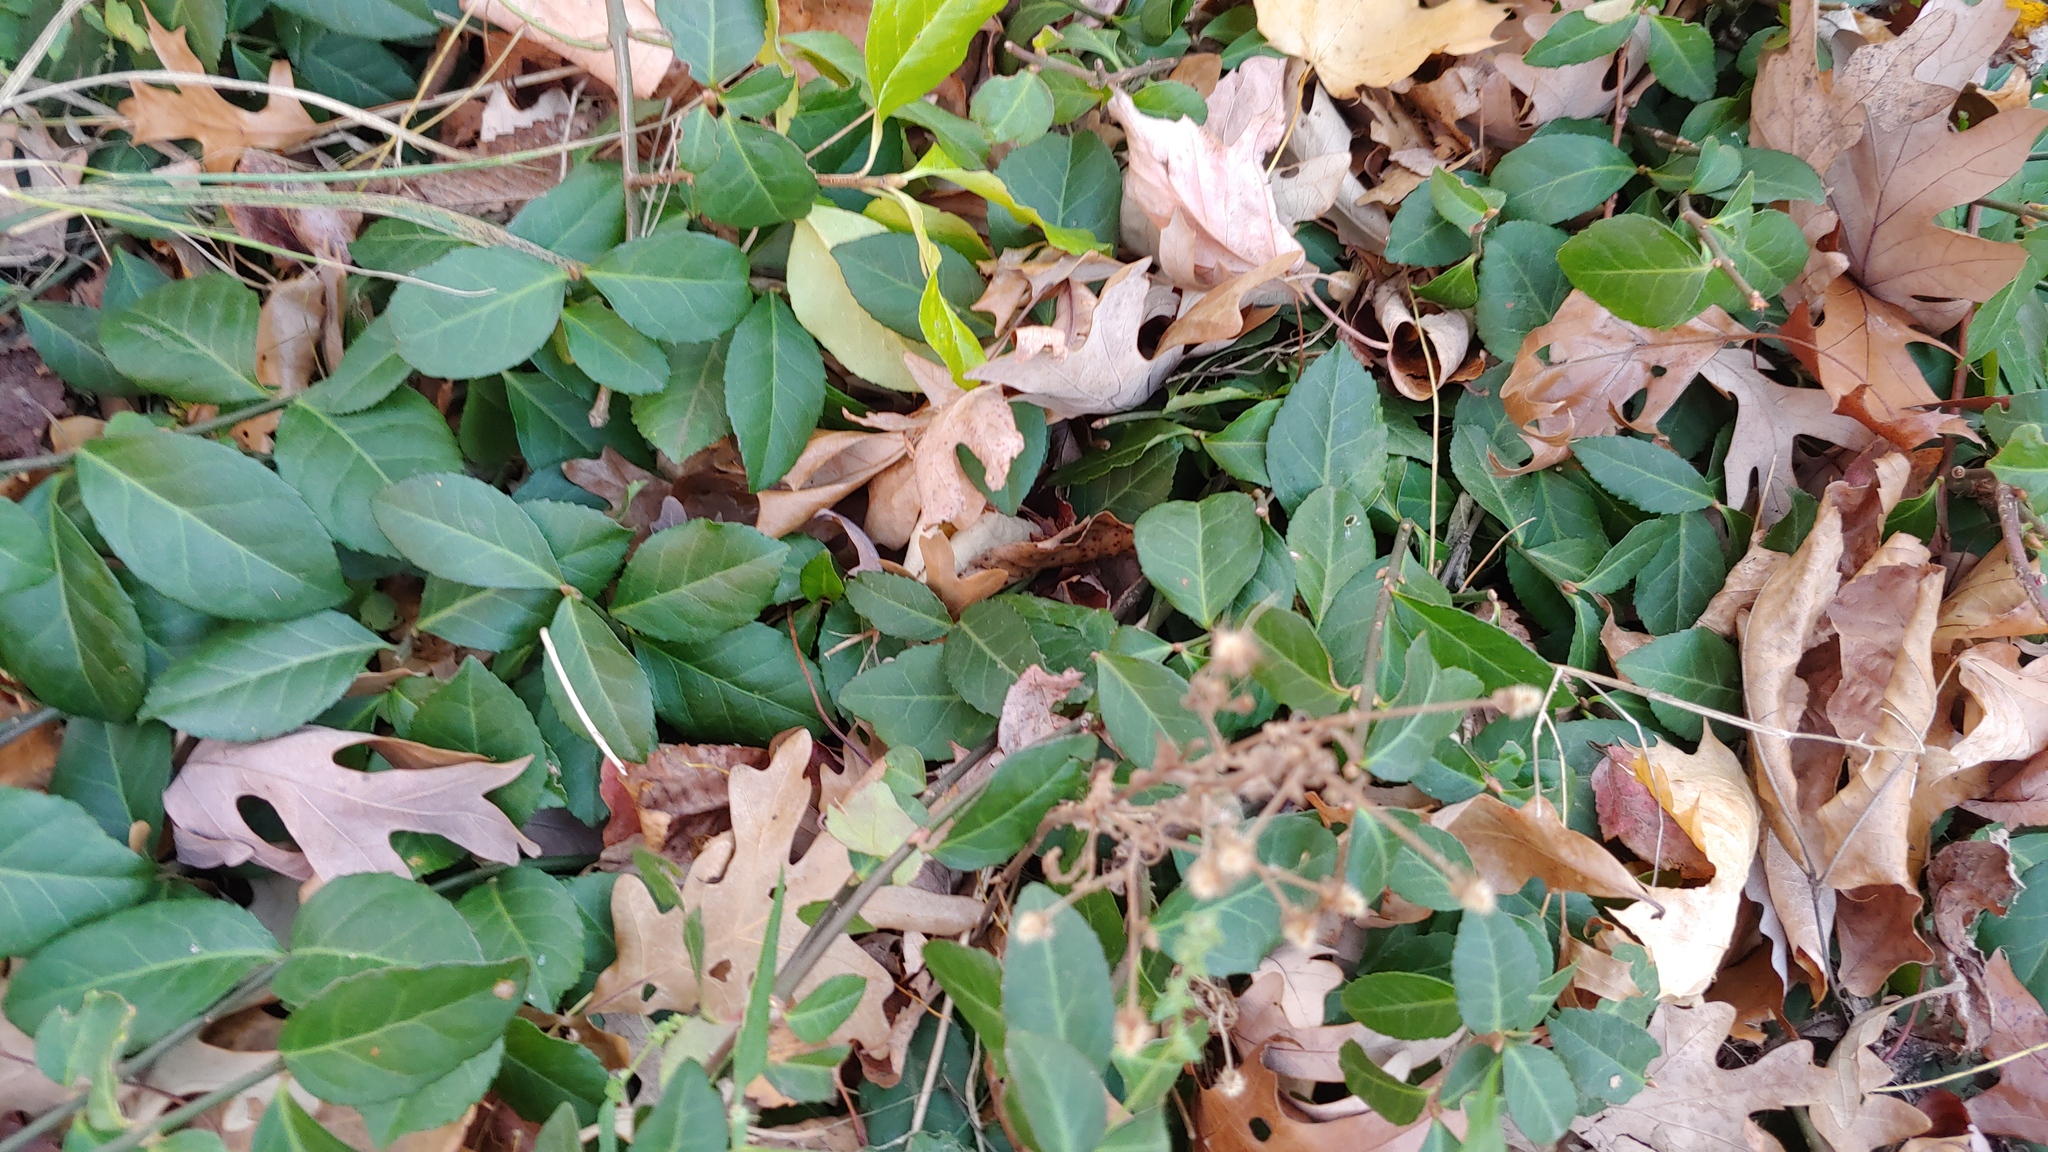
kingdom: Plantae
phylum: Tracheophyta
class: Magnoliopsida
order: Celastrales
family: Celastraceae
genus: Euonymus
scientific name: Euonymus fortunei
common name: Climbing euonymus
